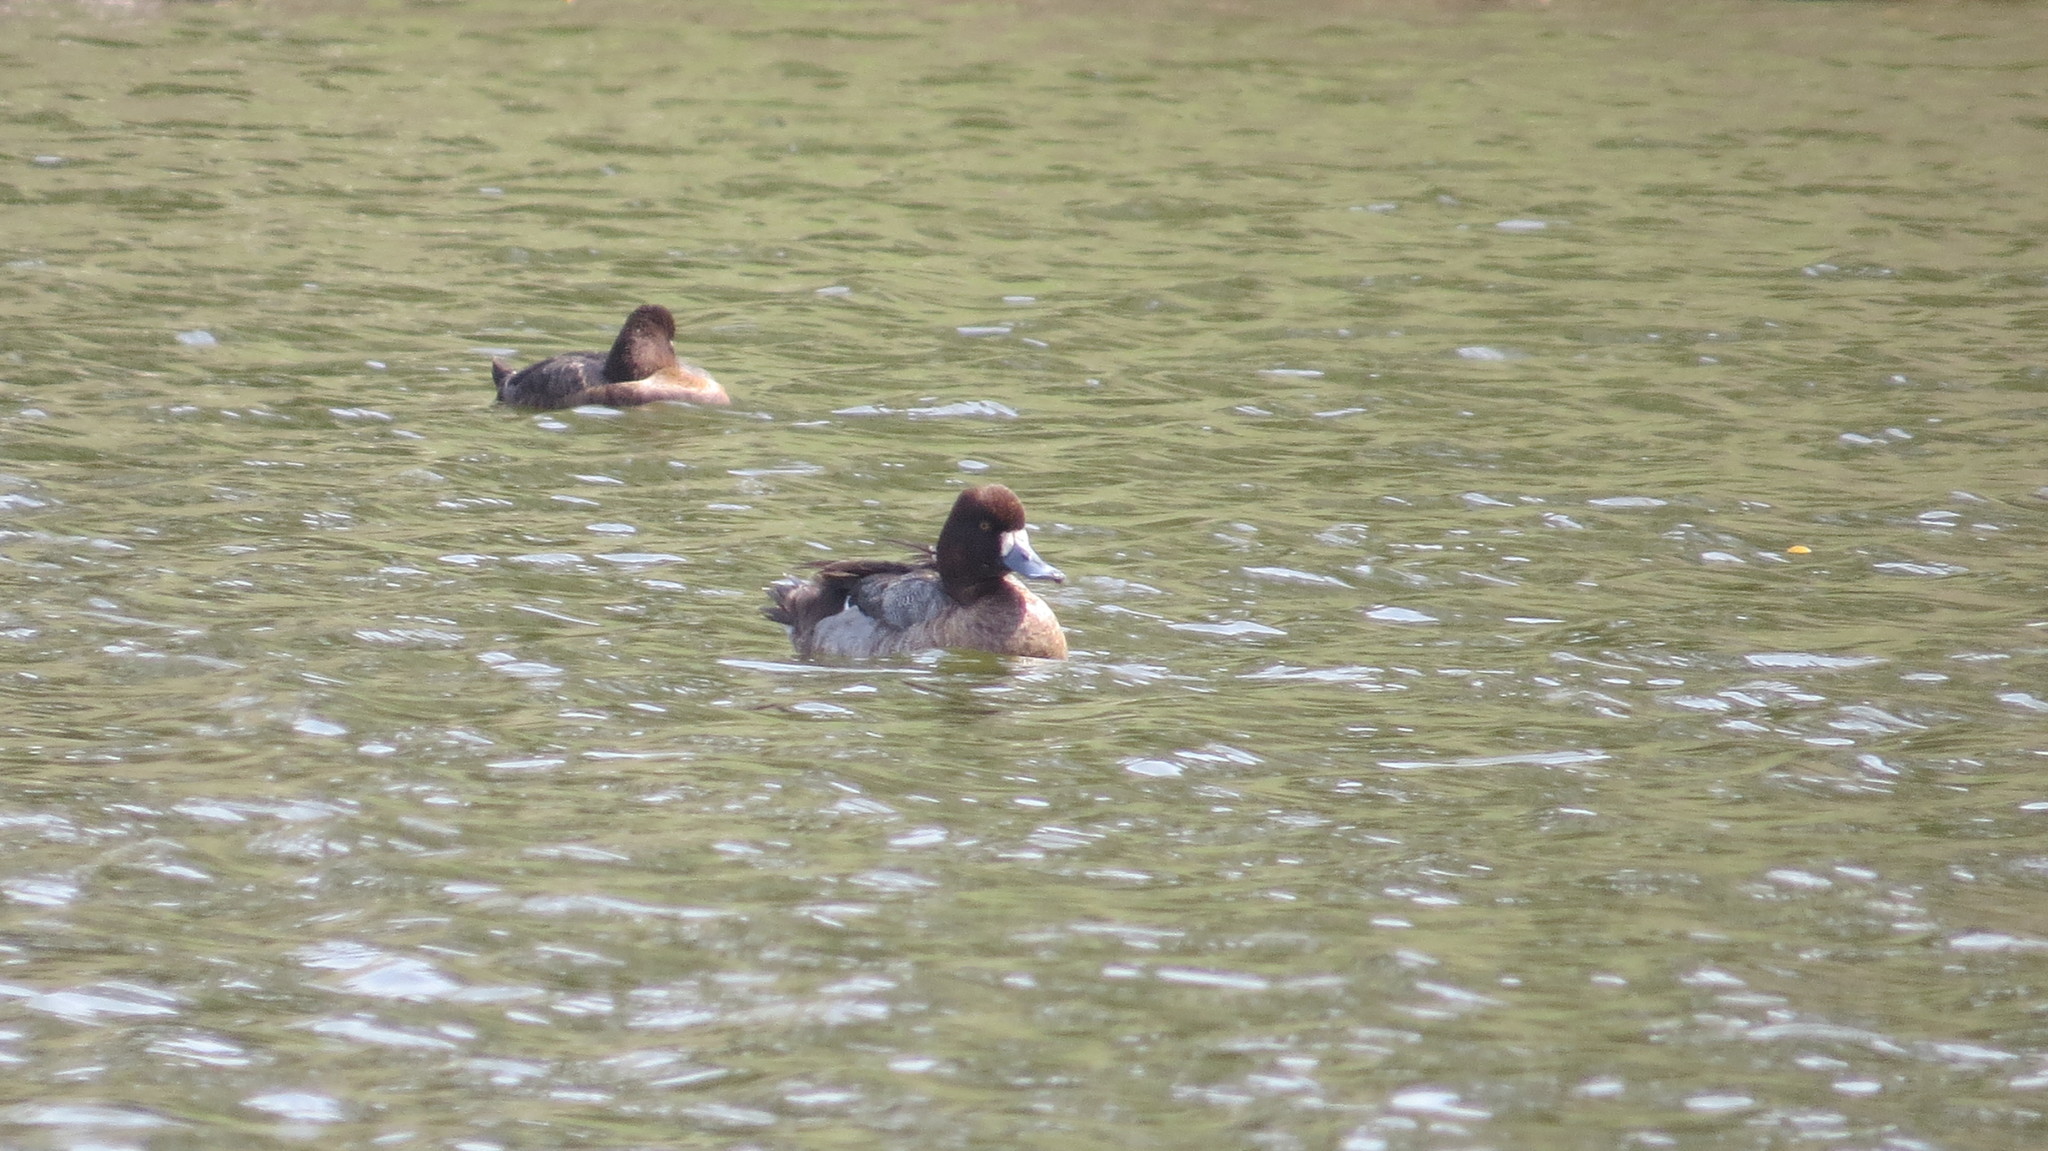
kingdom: Animalia
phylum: Chordata
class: Aves
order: Anseriformes
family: Anatidae
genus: Aythya
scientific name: Aythya affinis
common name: Lesser scaup
